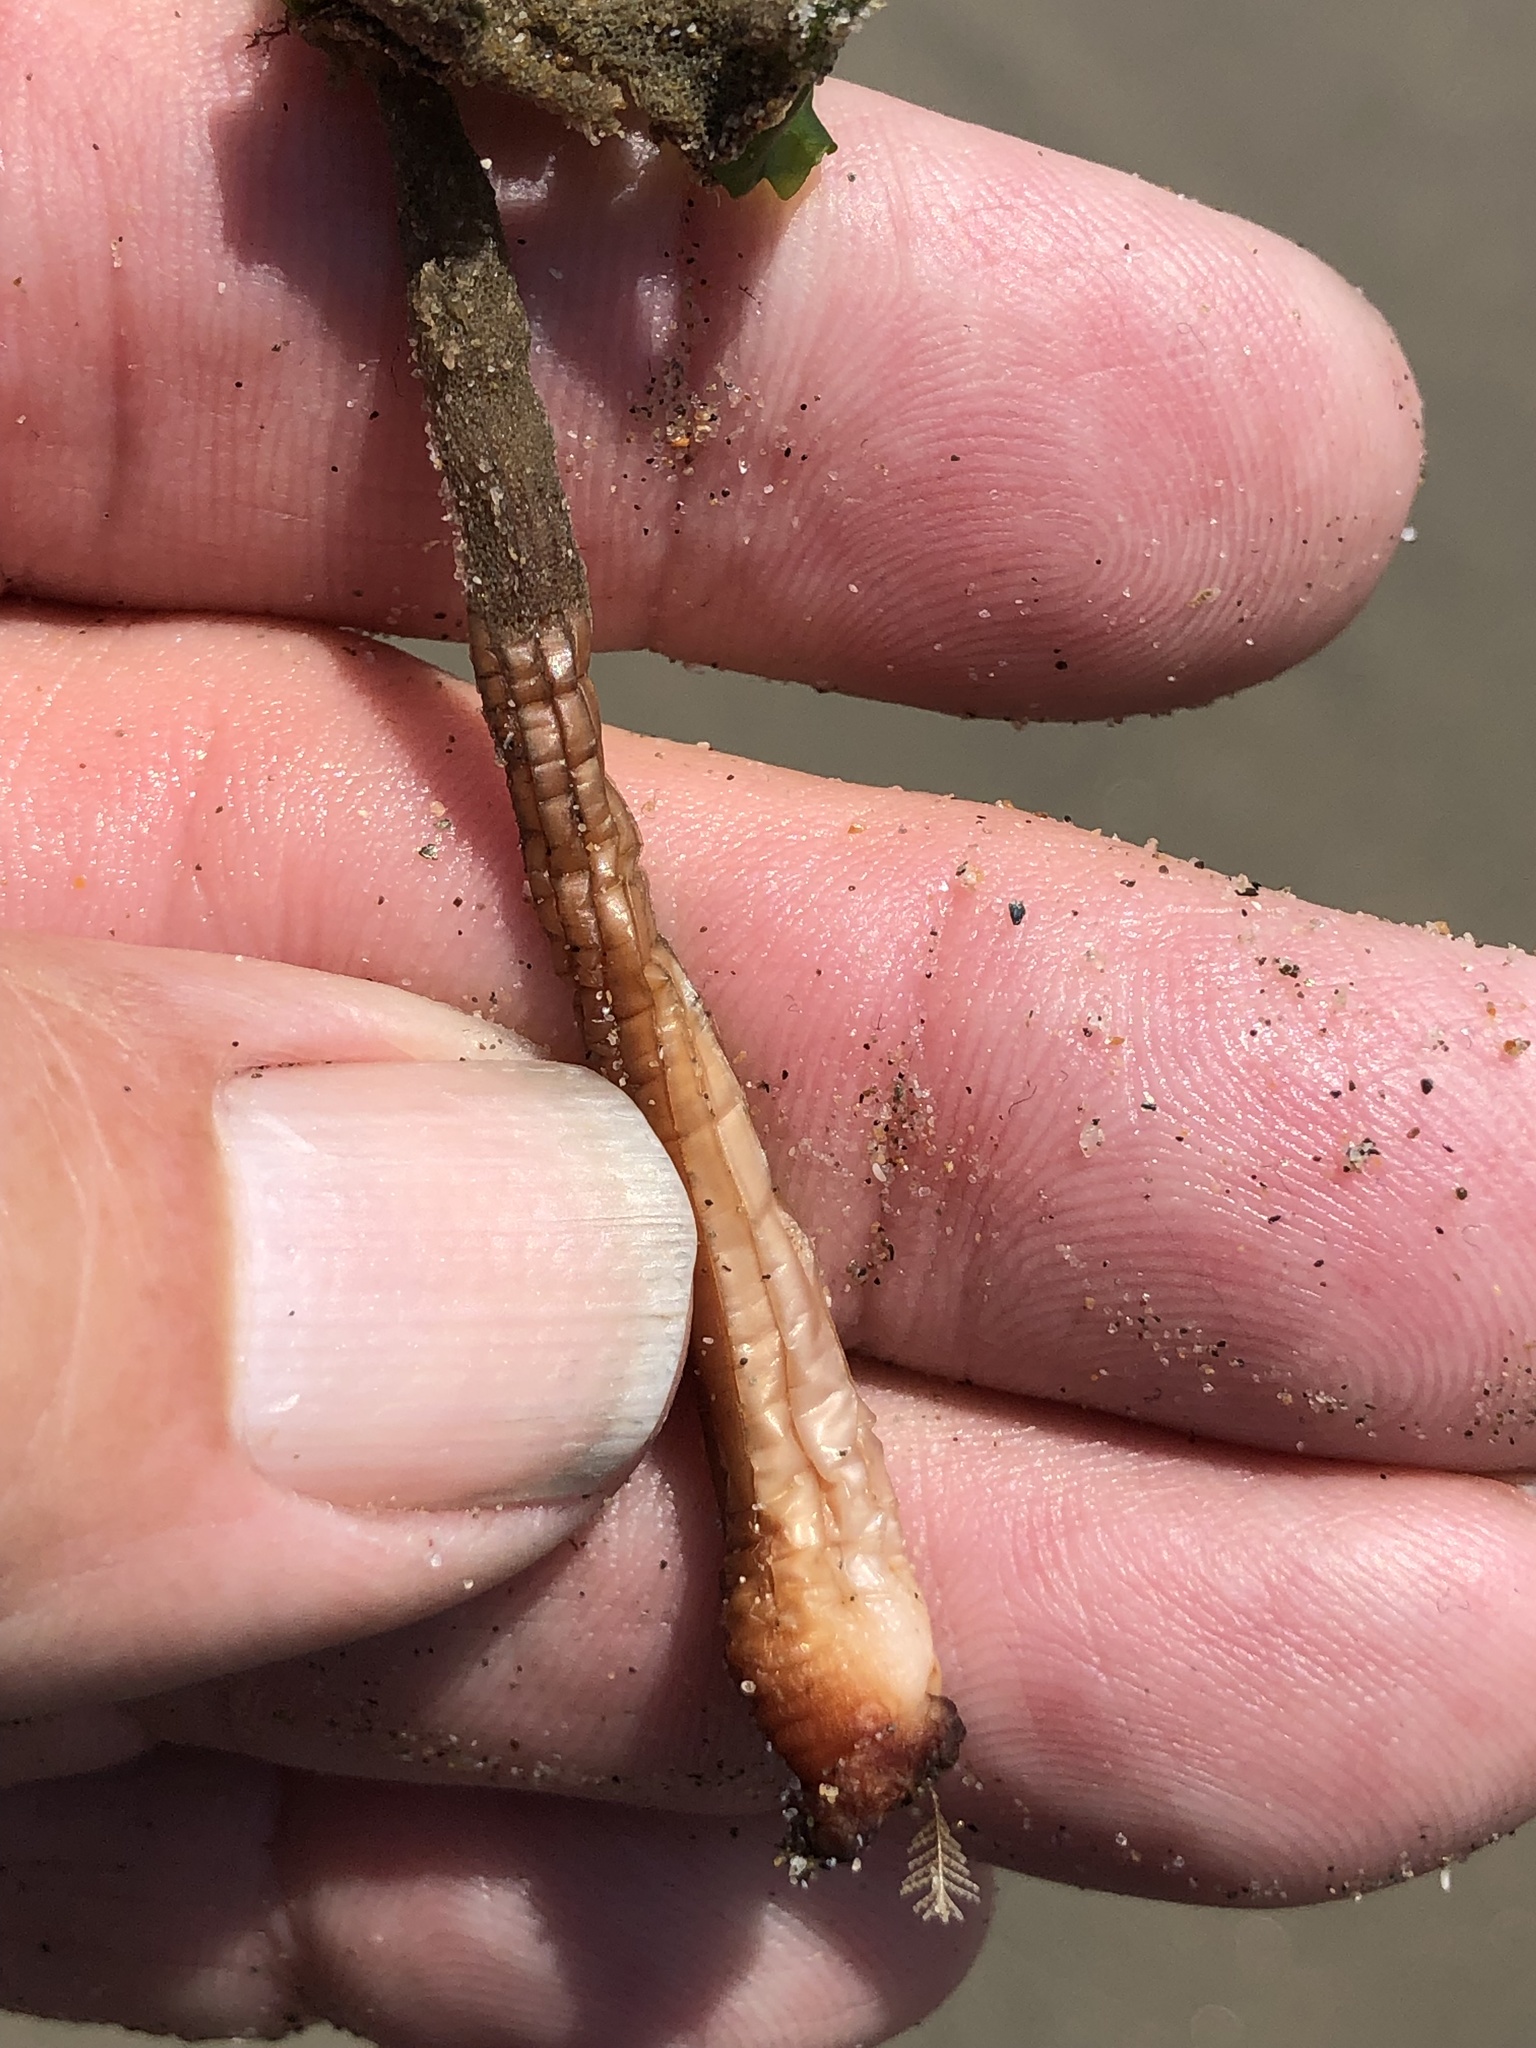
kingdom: Animalia
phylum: Chordata
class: Ascidiacea
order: Stolidobranchia
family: Styelidae
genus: Styela
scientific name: Styela montereyensis
